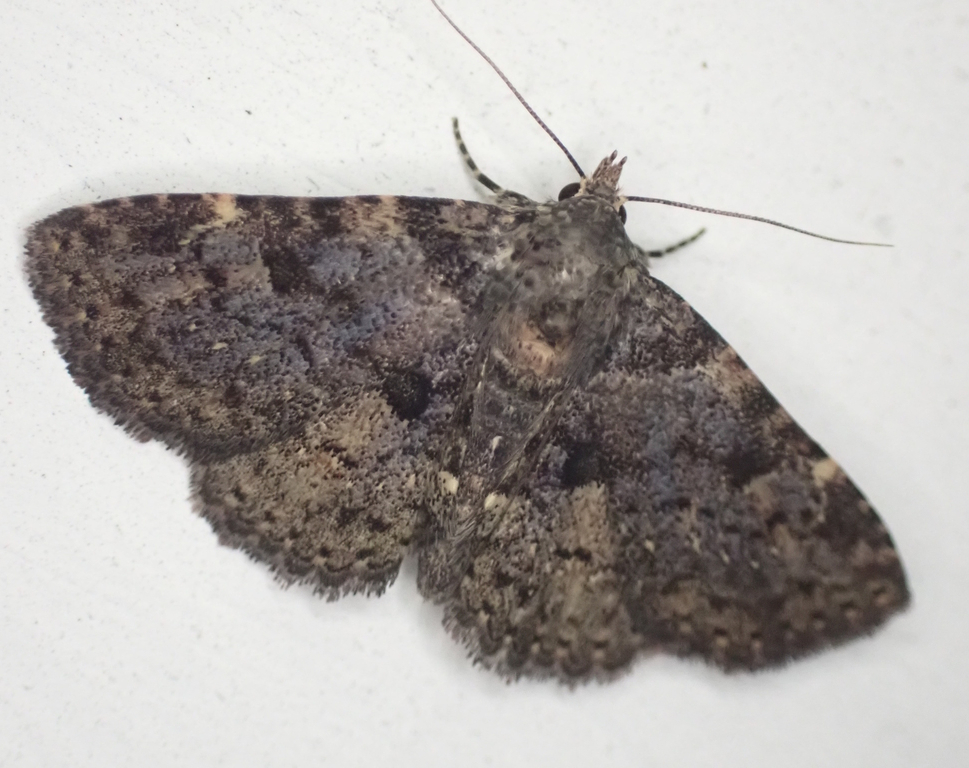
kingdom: Animalia
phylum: Arthropoda
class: Insecta
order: Lepidoptera
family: Erebidae
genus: Metalectra
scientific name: Metalectra quadrisignata
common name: Four-spotted fungus moth
